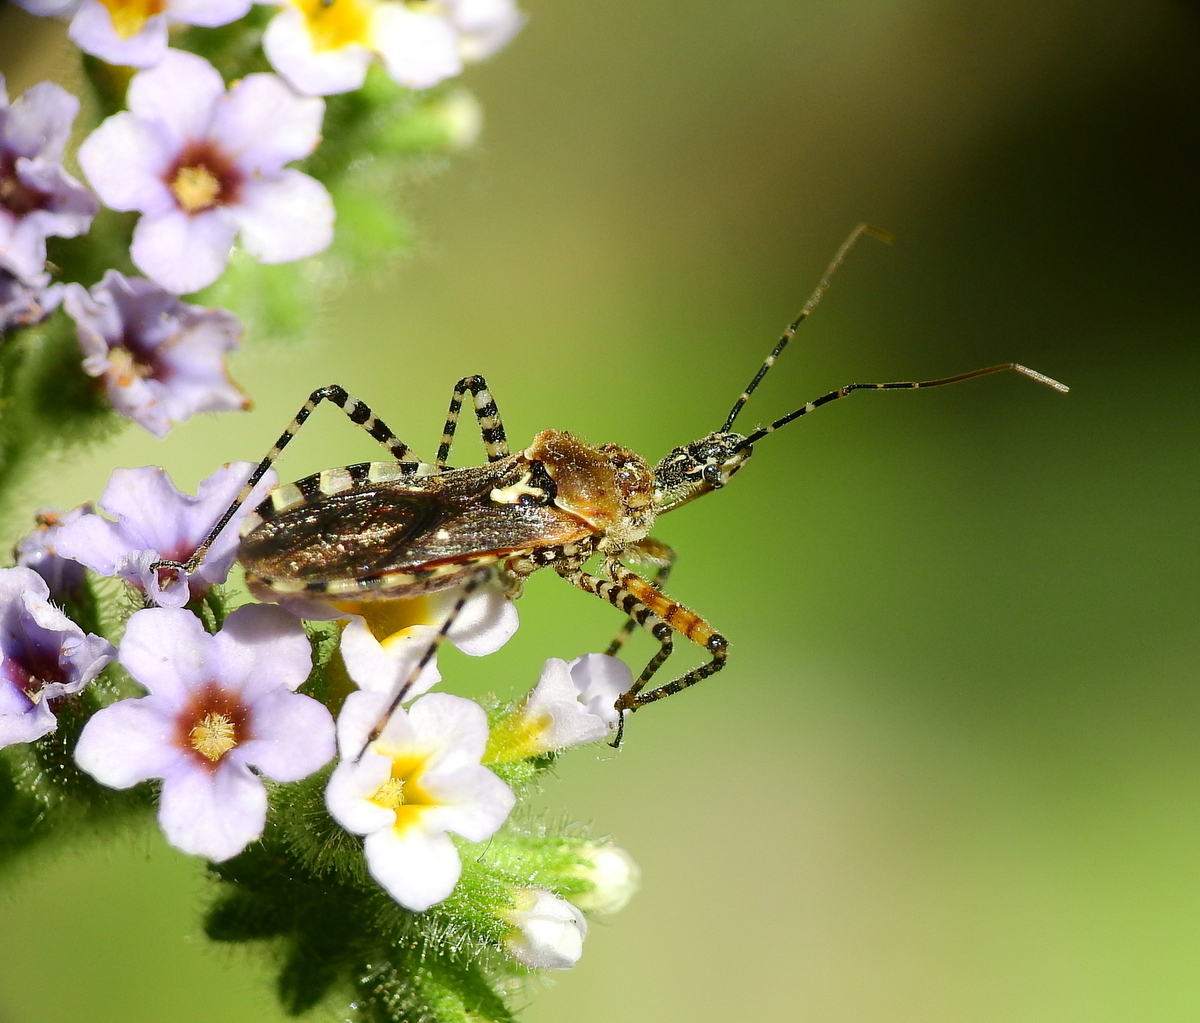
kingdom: Animalia
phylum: Arthropoda
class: Insecta
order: Hemiptera
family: Reduviidae
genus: Cosmoclopius
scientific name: Cosmoclopius nigroannulatus
